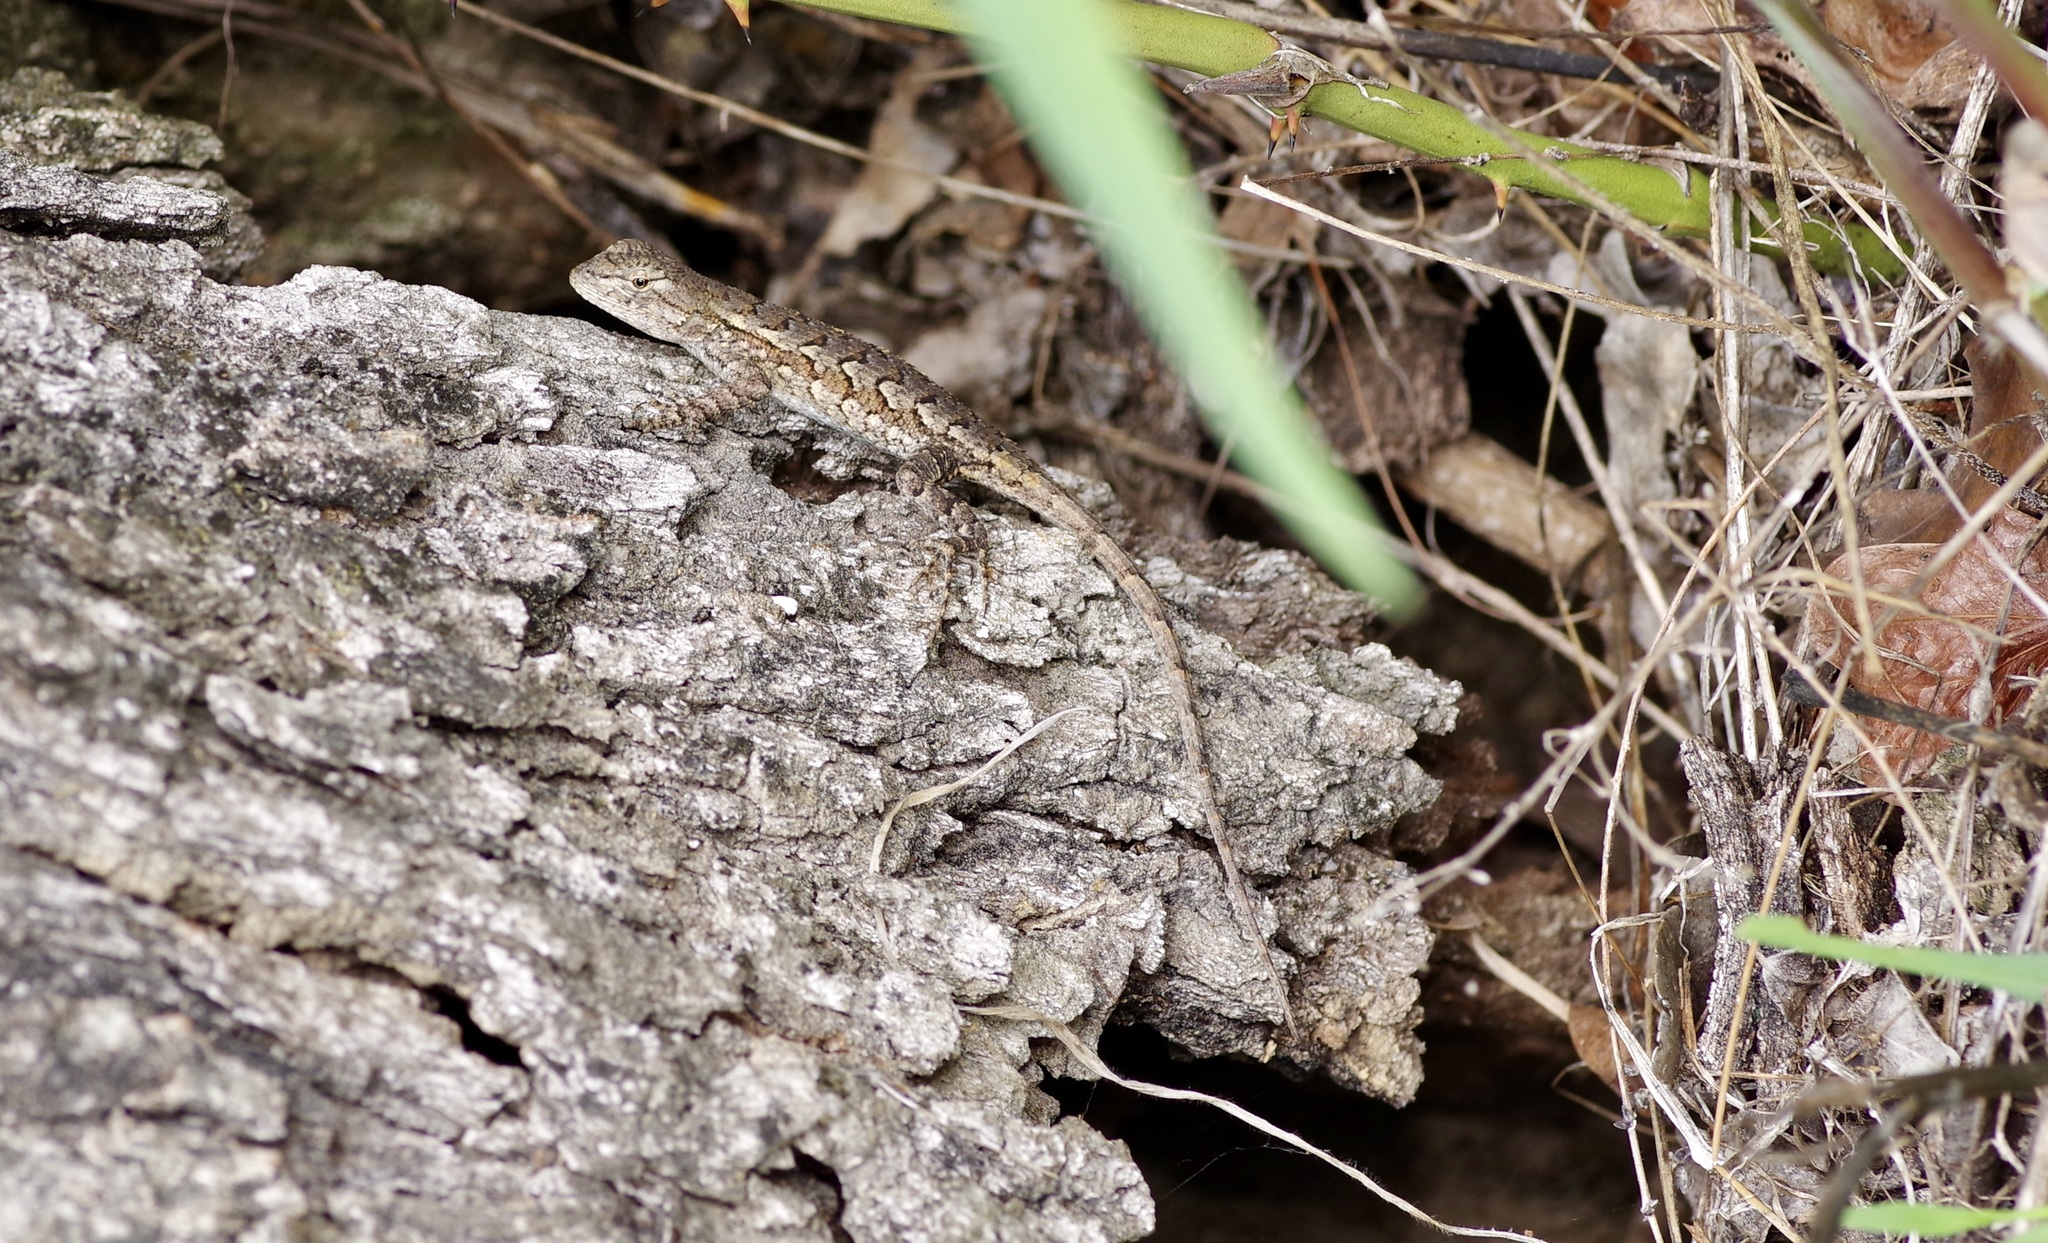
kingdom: Animalia
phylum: Chordata
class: Squamata
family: Phrynosomatidae
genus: Sceloporus
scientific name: Sceloporus consobrinus
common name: Southern prairie lizard
